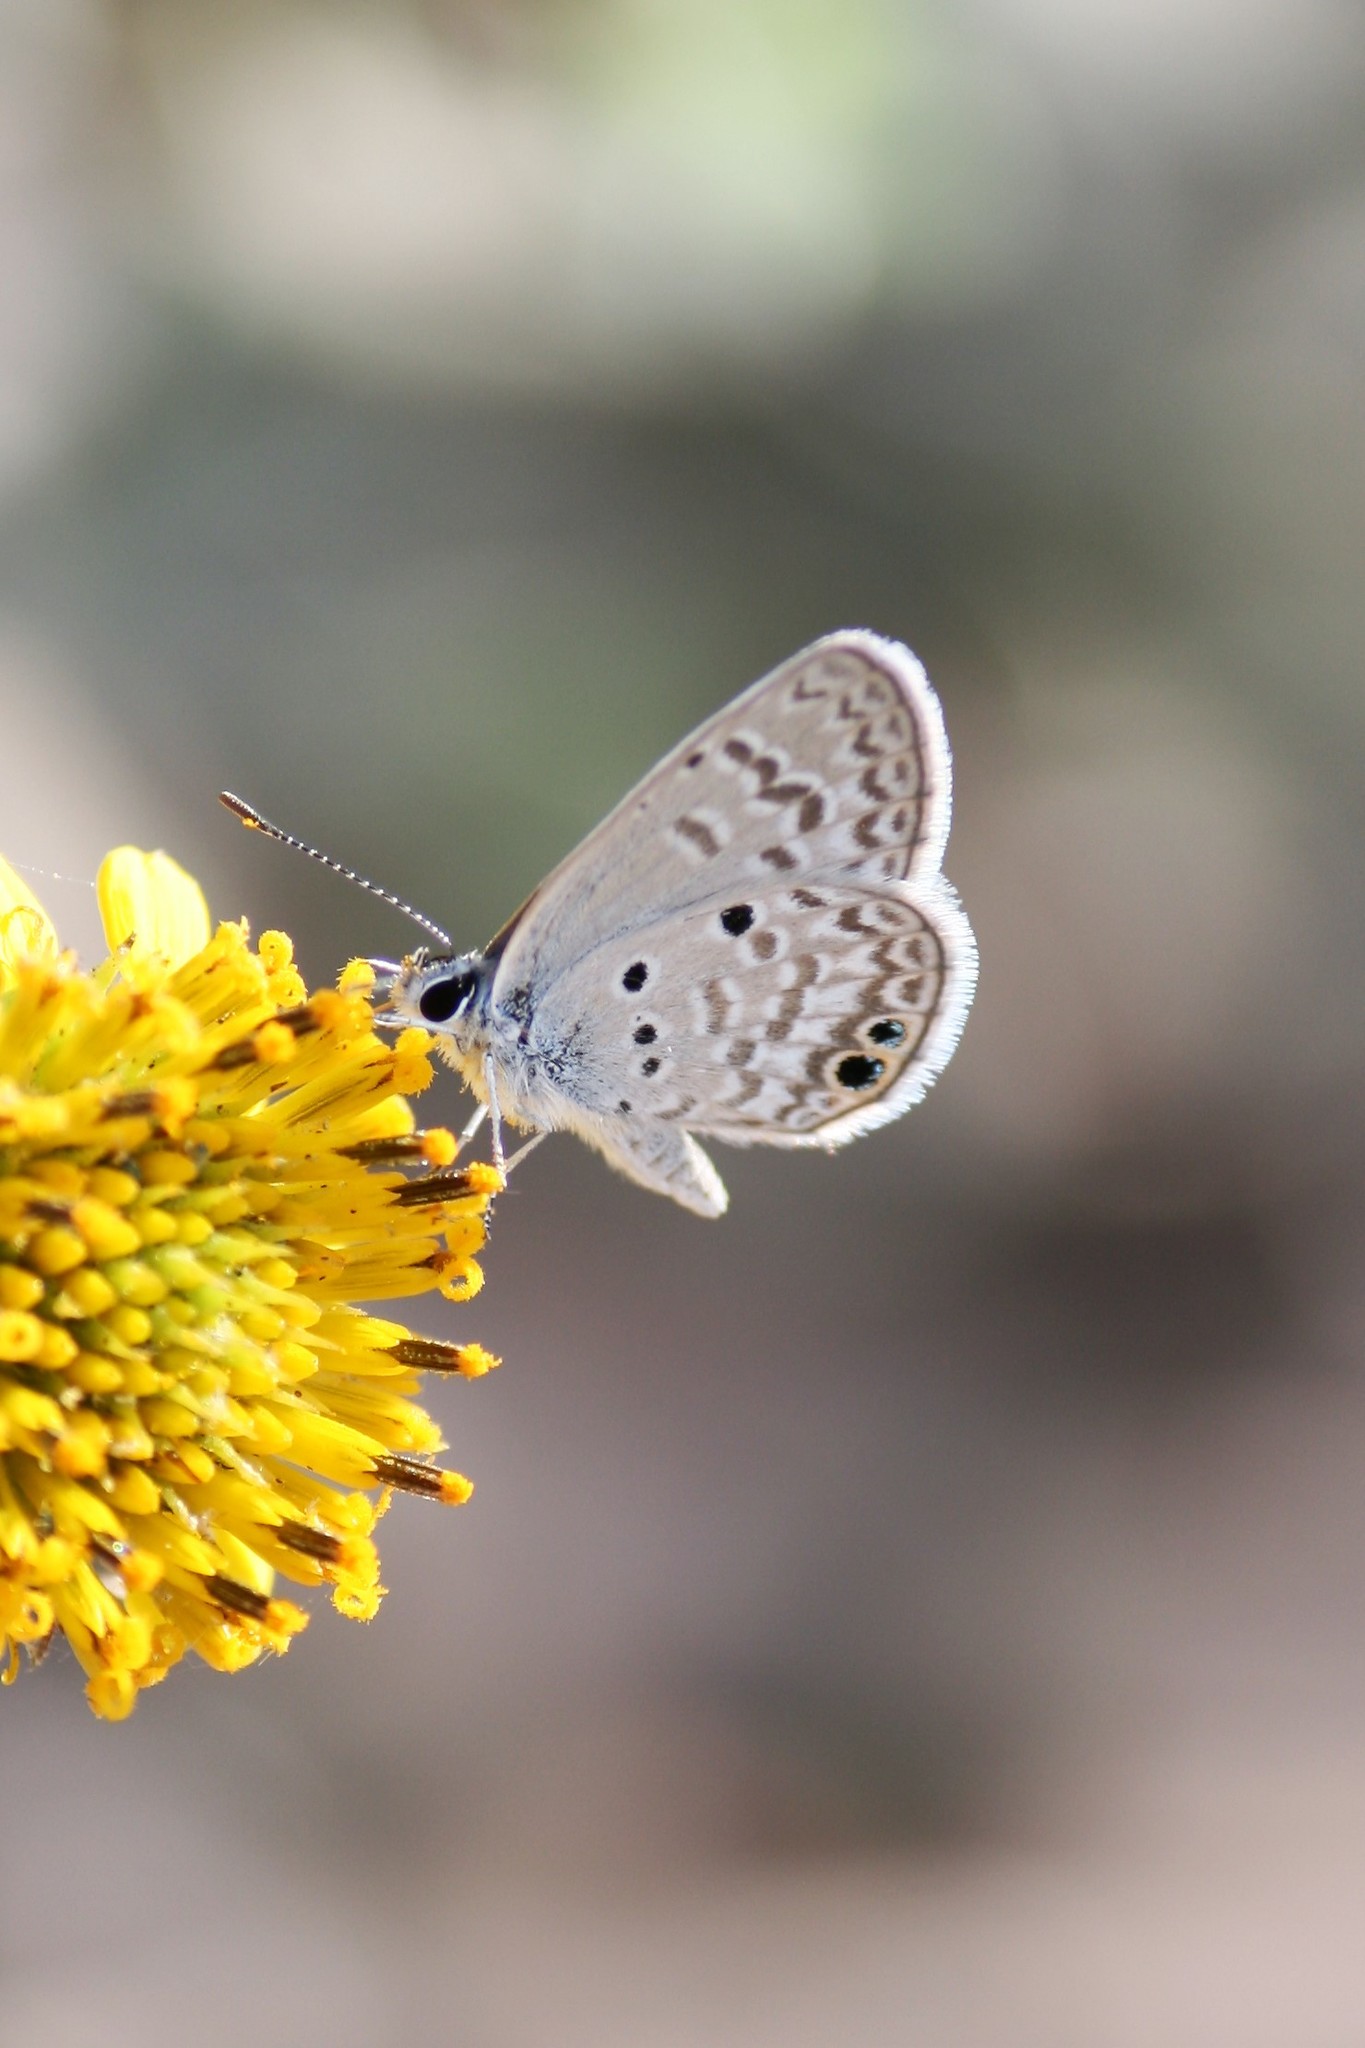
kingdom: Animalia
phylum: Arthropoda
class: Insecta
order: Lepidoptera
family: Lycaenidae
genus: Hemiargus
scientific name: Hemiargus ceraunus
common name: Ceraunus blue
